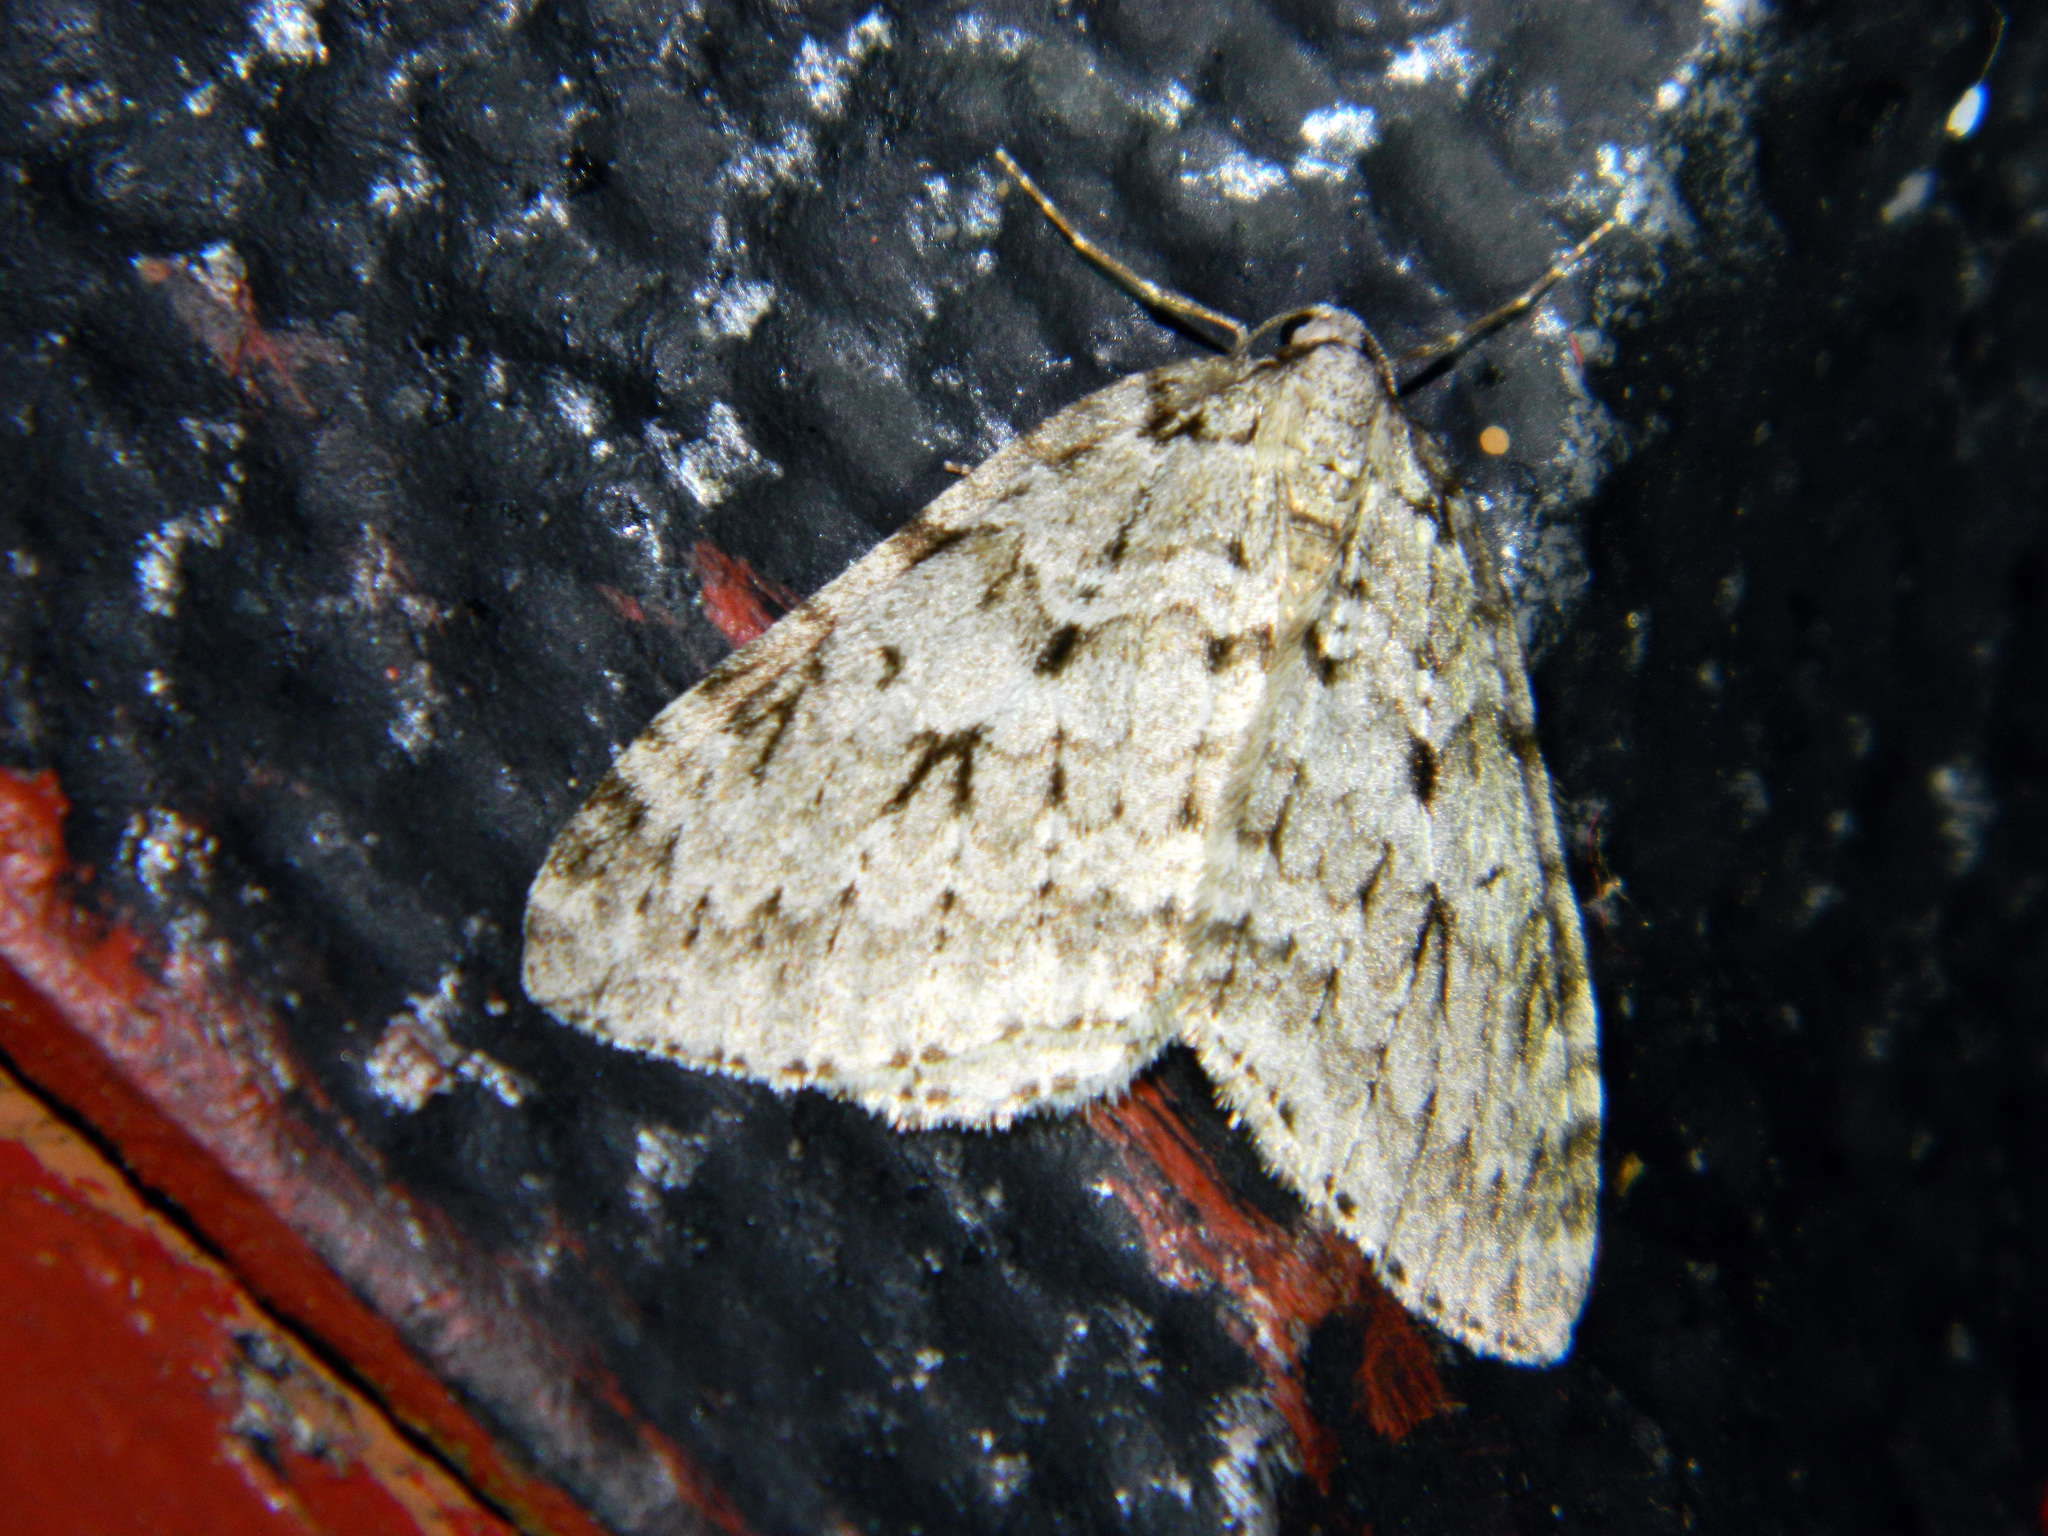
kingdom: Animalia
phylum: Arthropoda
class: Insecta
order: Lepidoptera
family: Geometridae
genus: Epirrita
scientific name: Epirrita autumnata
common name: Autumnal moth
